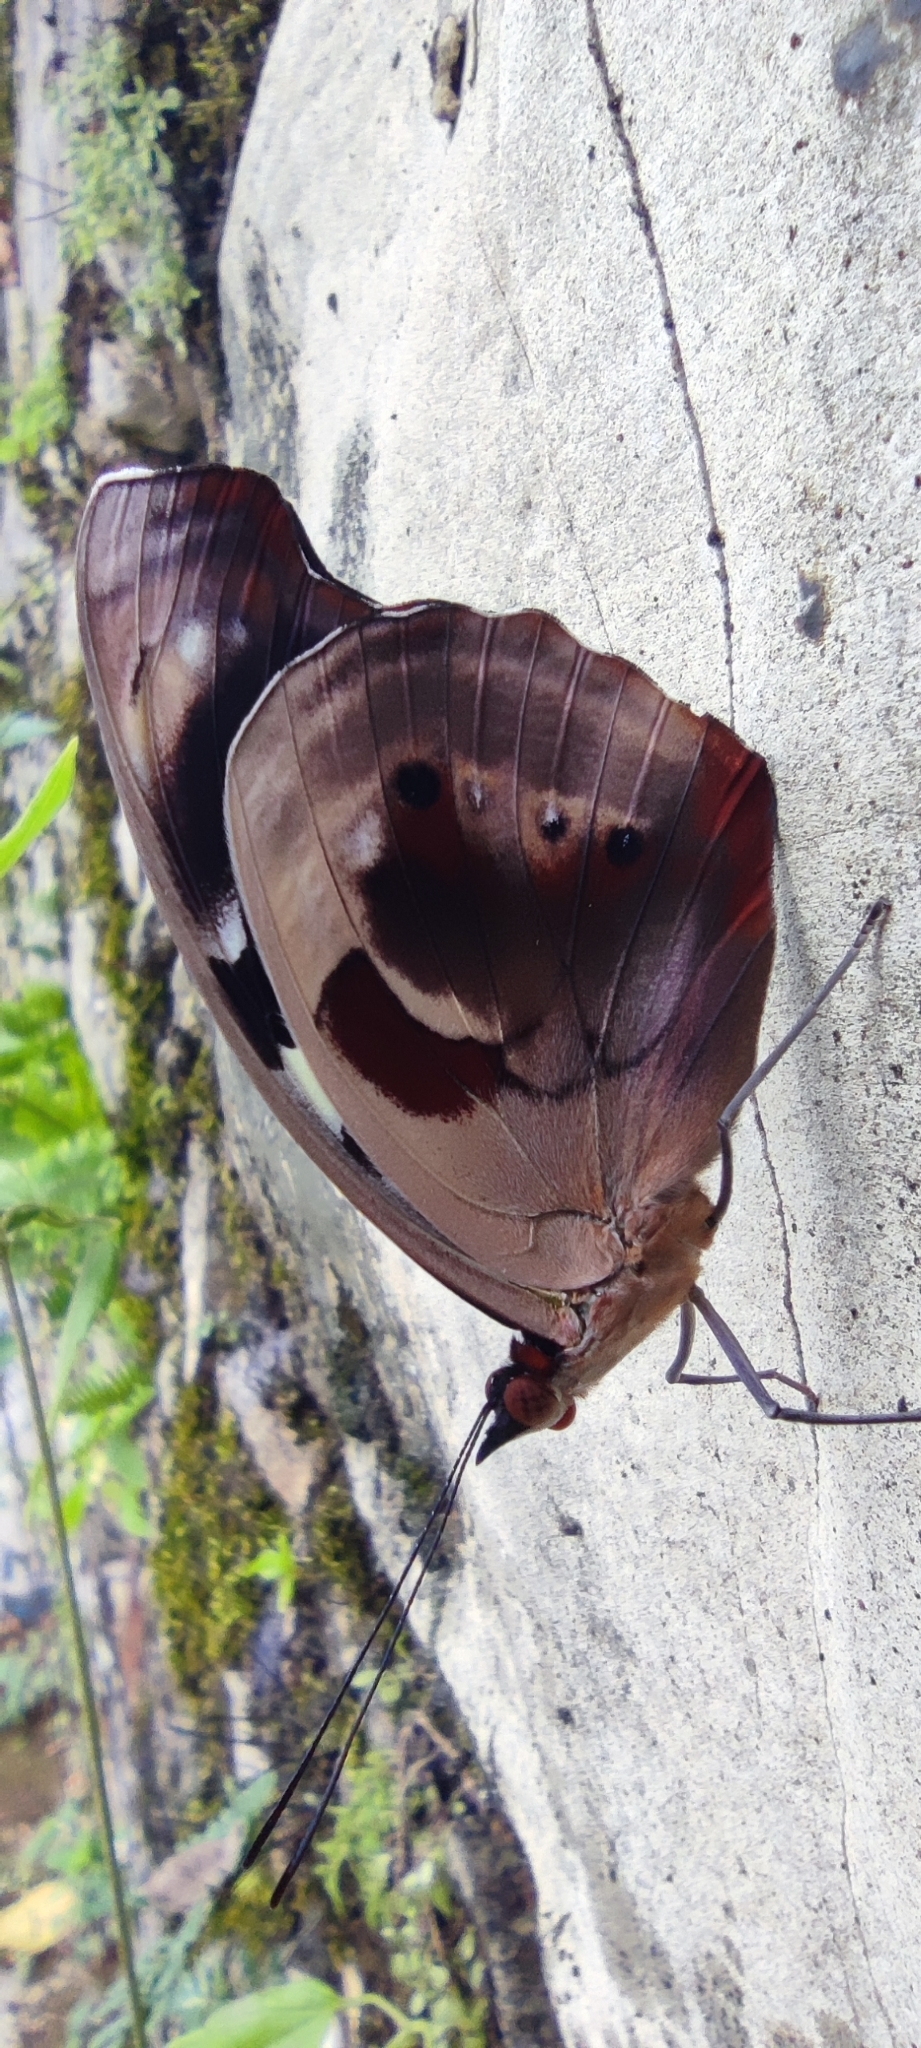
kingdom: Animalia
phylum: Arthropoda
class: Insecta
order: Lepidoptera
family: Nymphalidae
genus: Catonephele
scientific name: Catonephele numilia
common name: Blue-frosted banner
